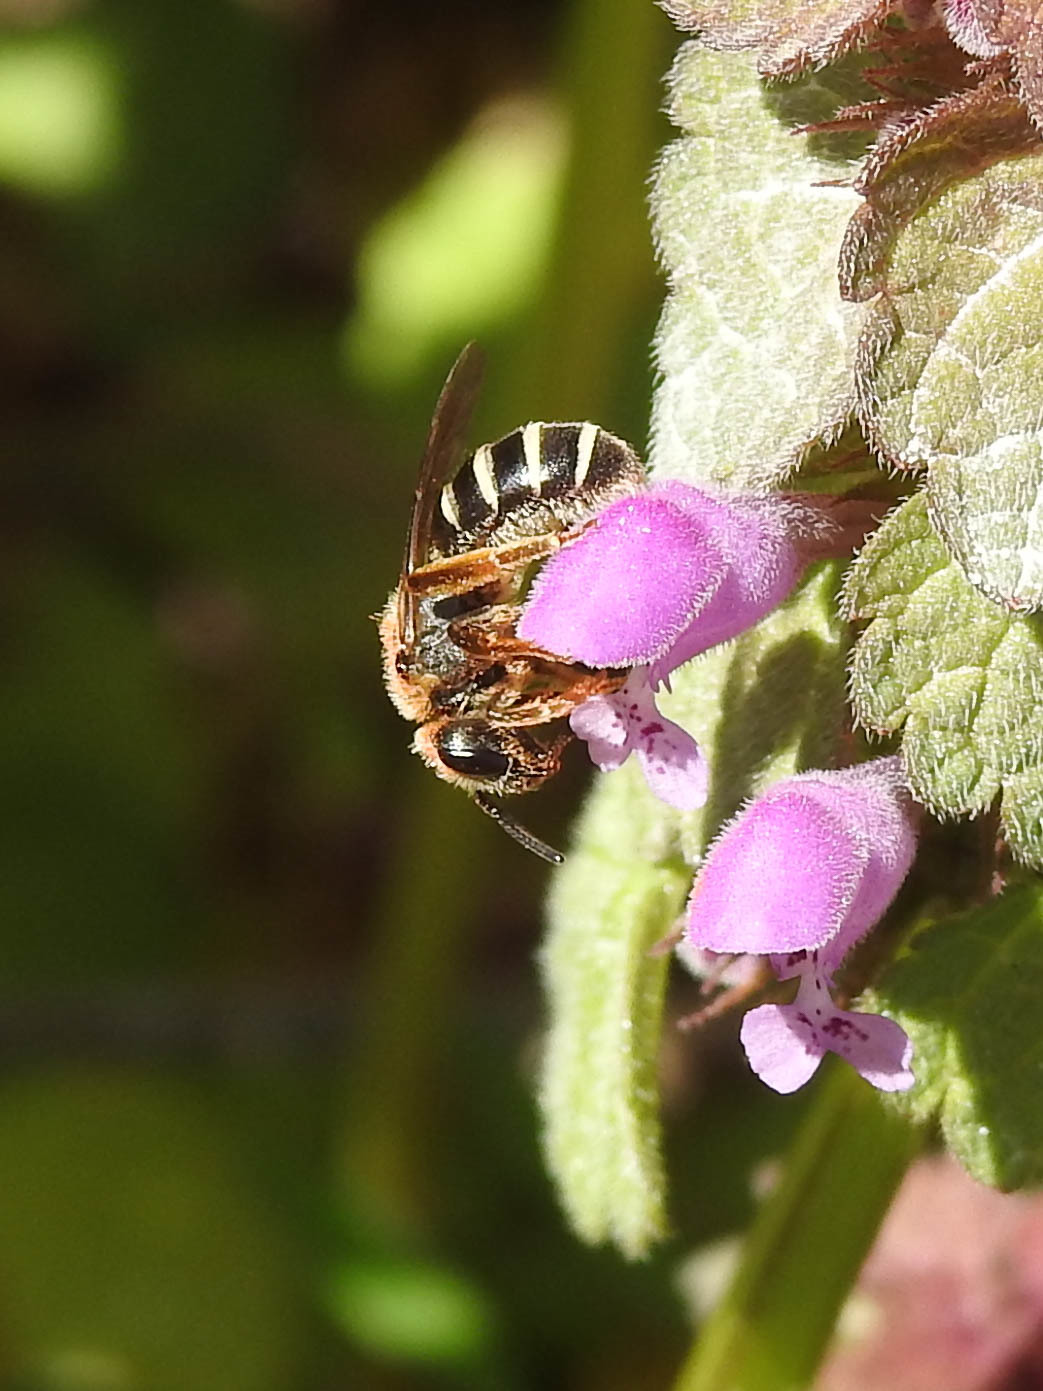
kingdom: Animalia
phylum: Arthropoda
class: Insecta
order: Hymenoptera
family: Halictidae
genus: Halictus
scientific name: Halictus rubicundus
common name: Orange-legged furrow bee
